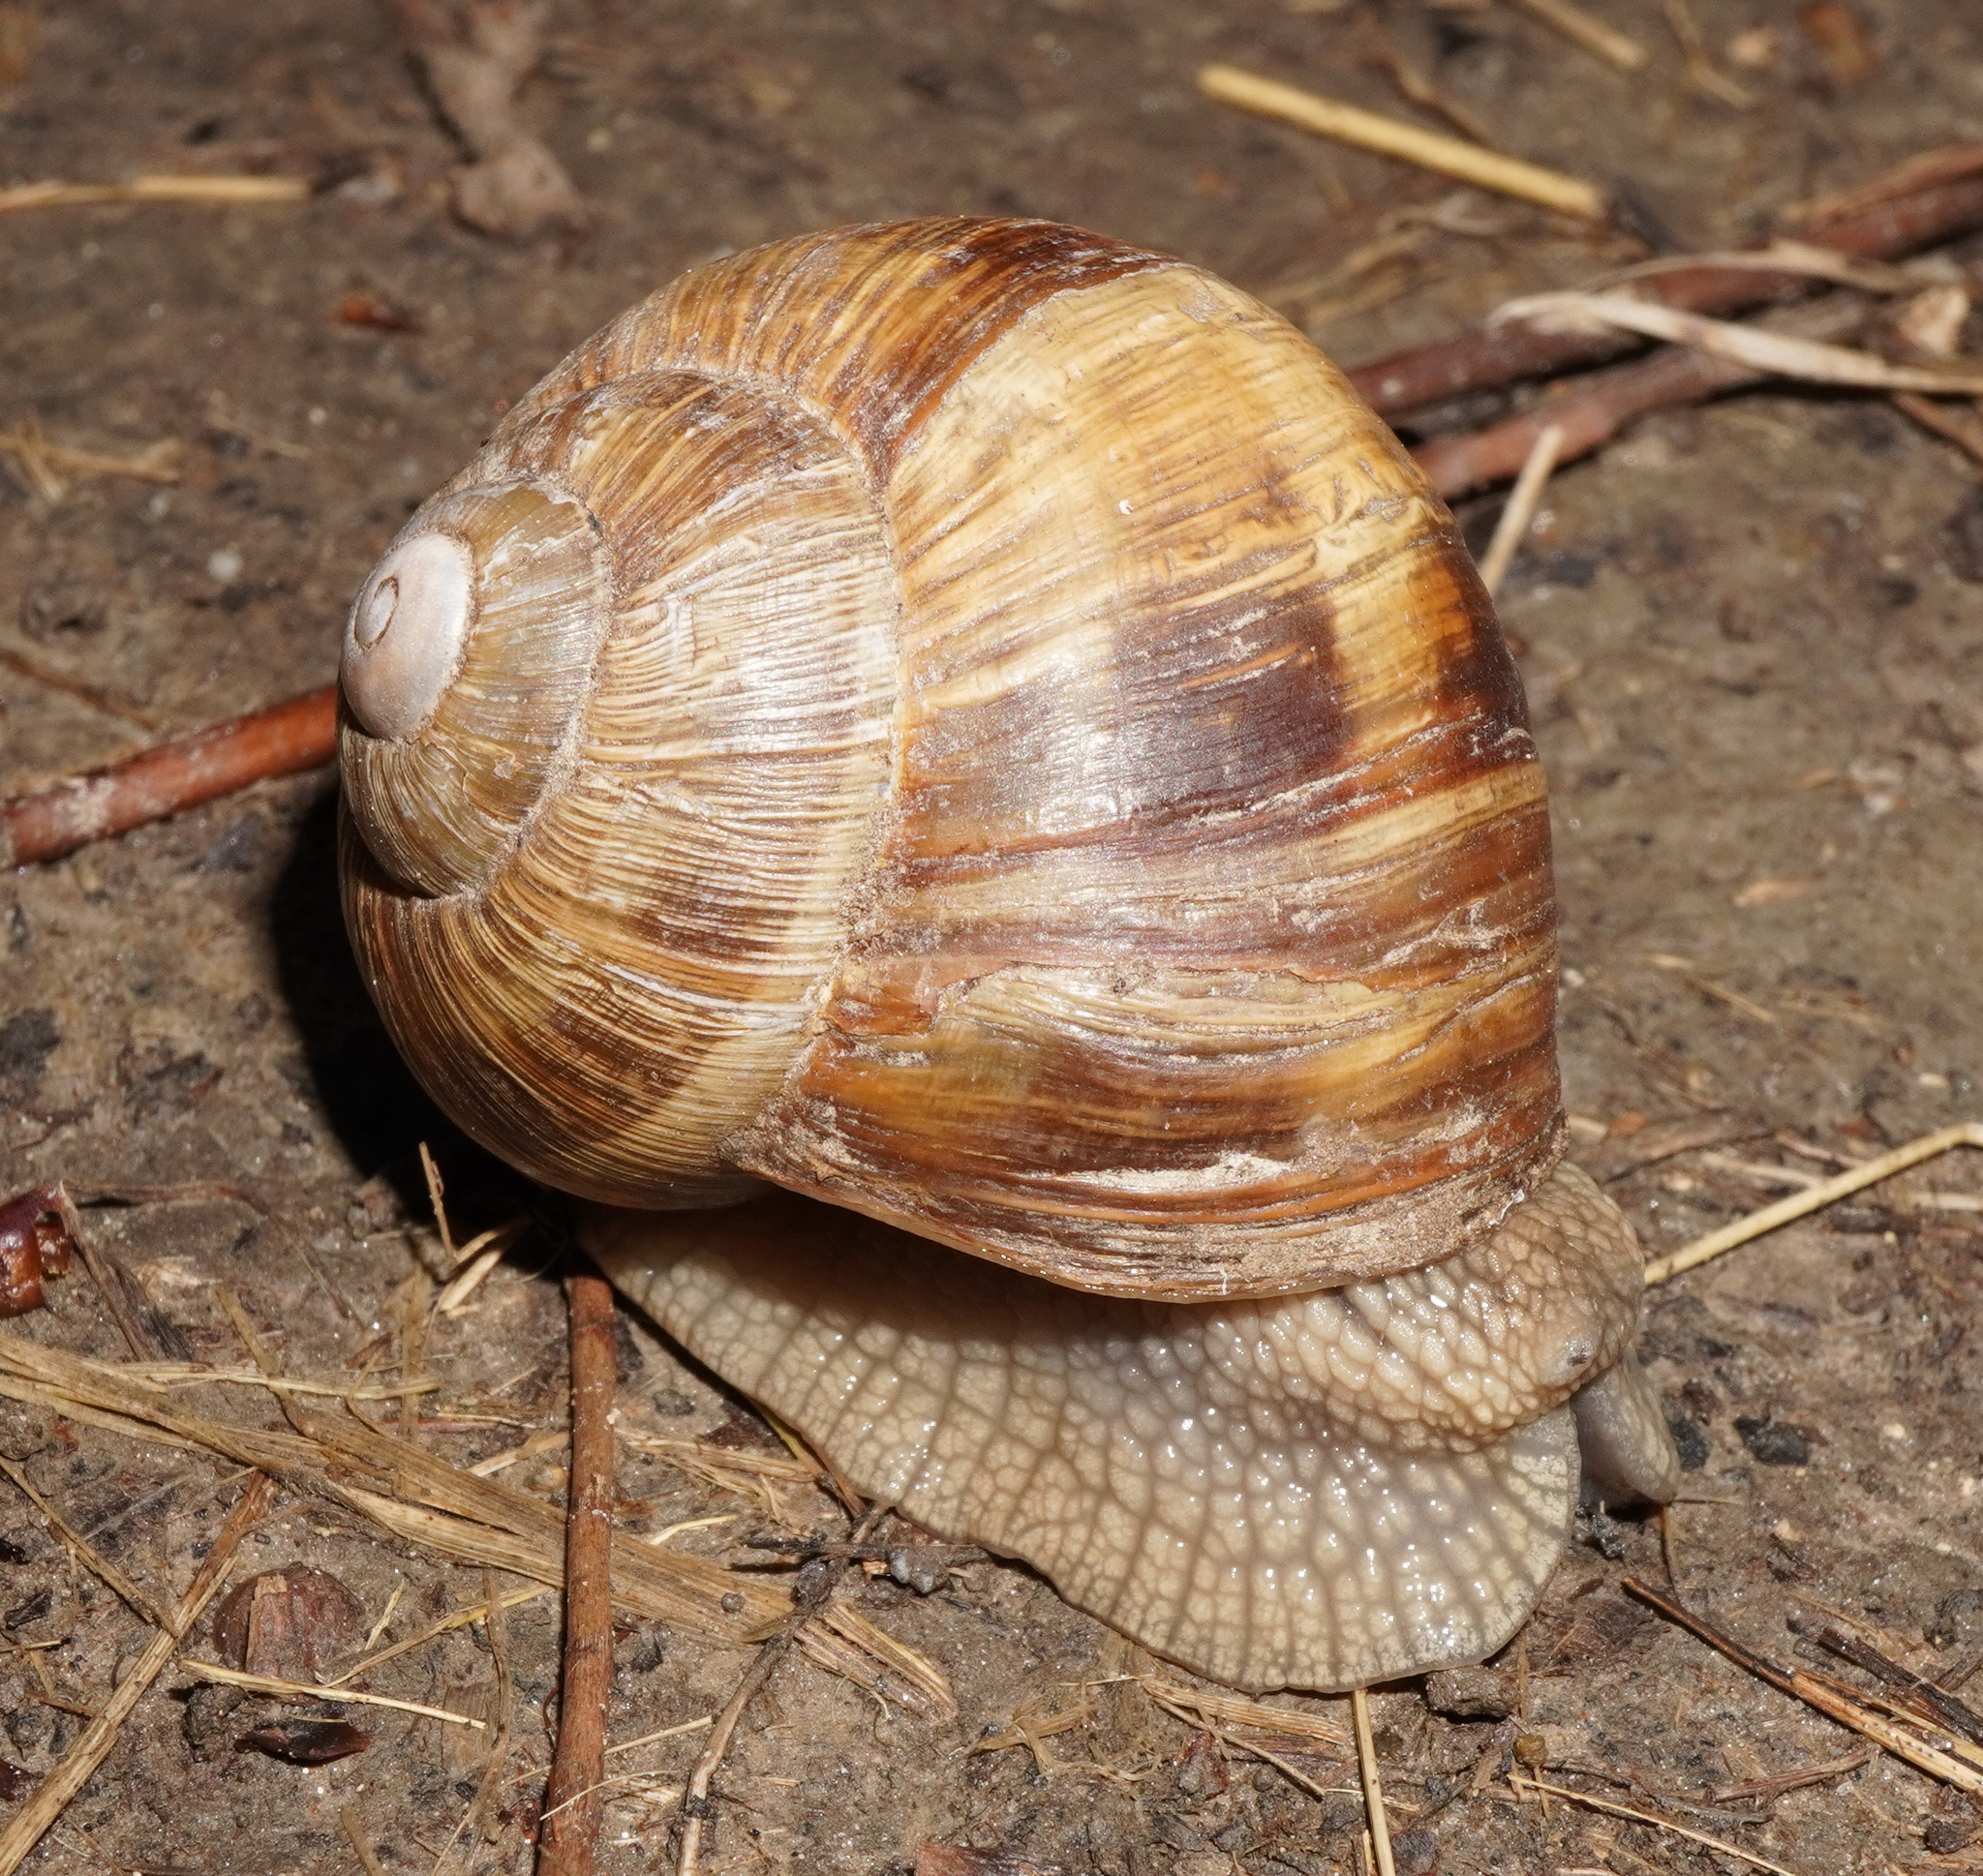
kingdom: Animalia
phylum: Mollusca
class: Gastropoda
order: Stylommatophora
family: Helicidae
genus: Helix
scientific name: Helix pomatia
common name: Roman snail
